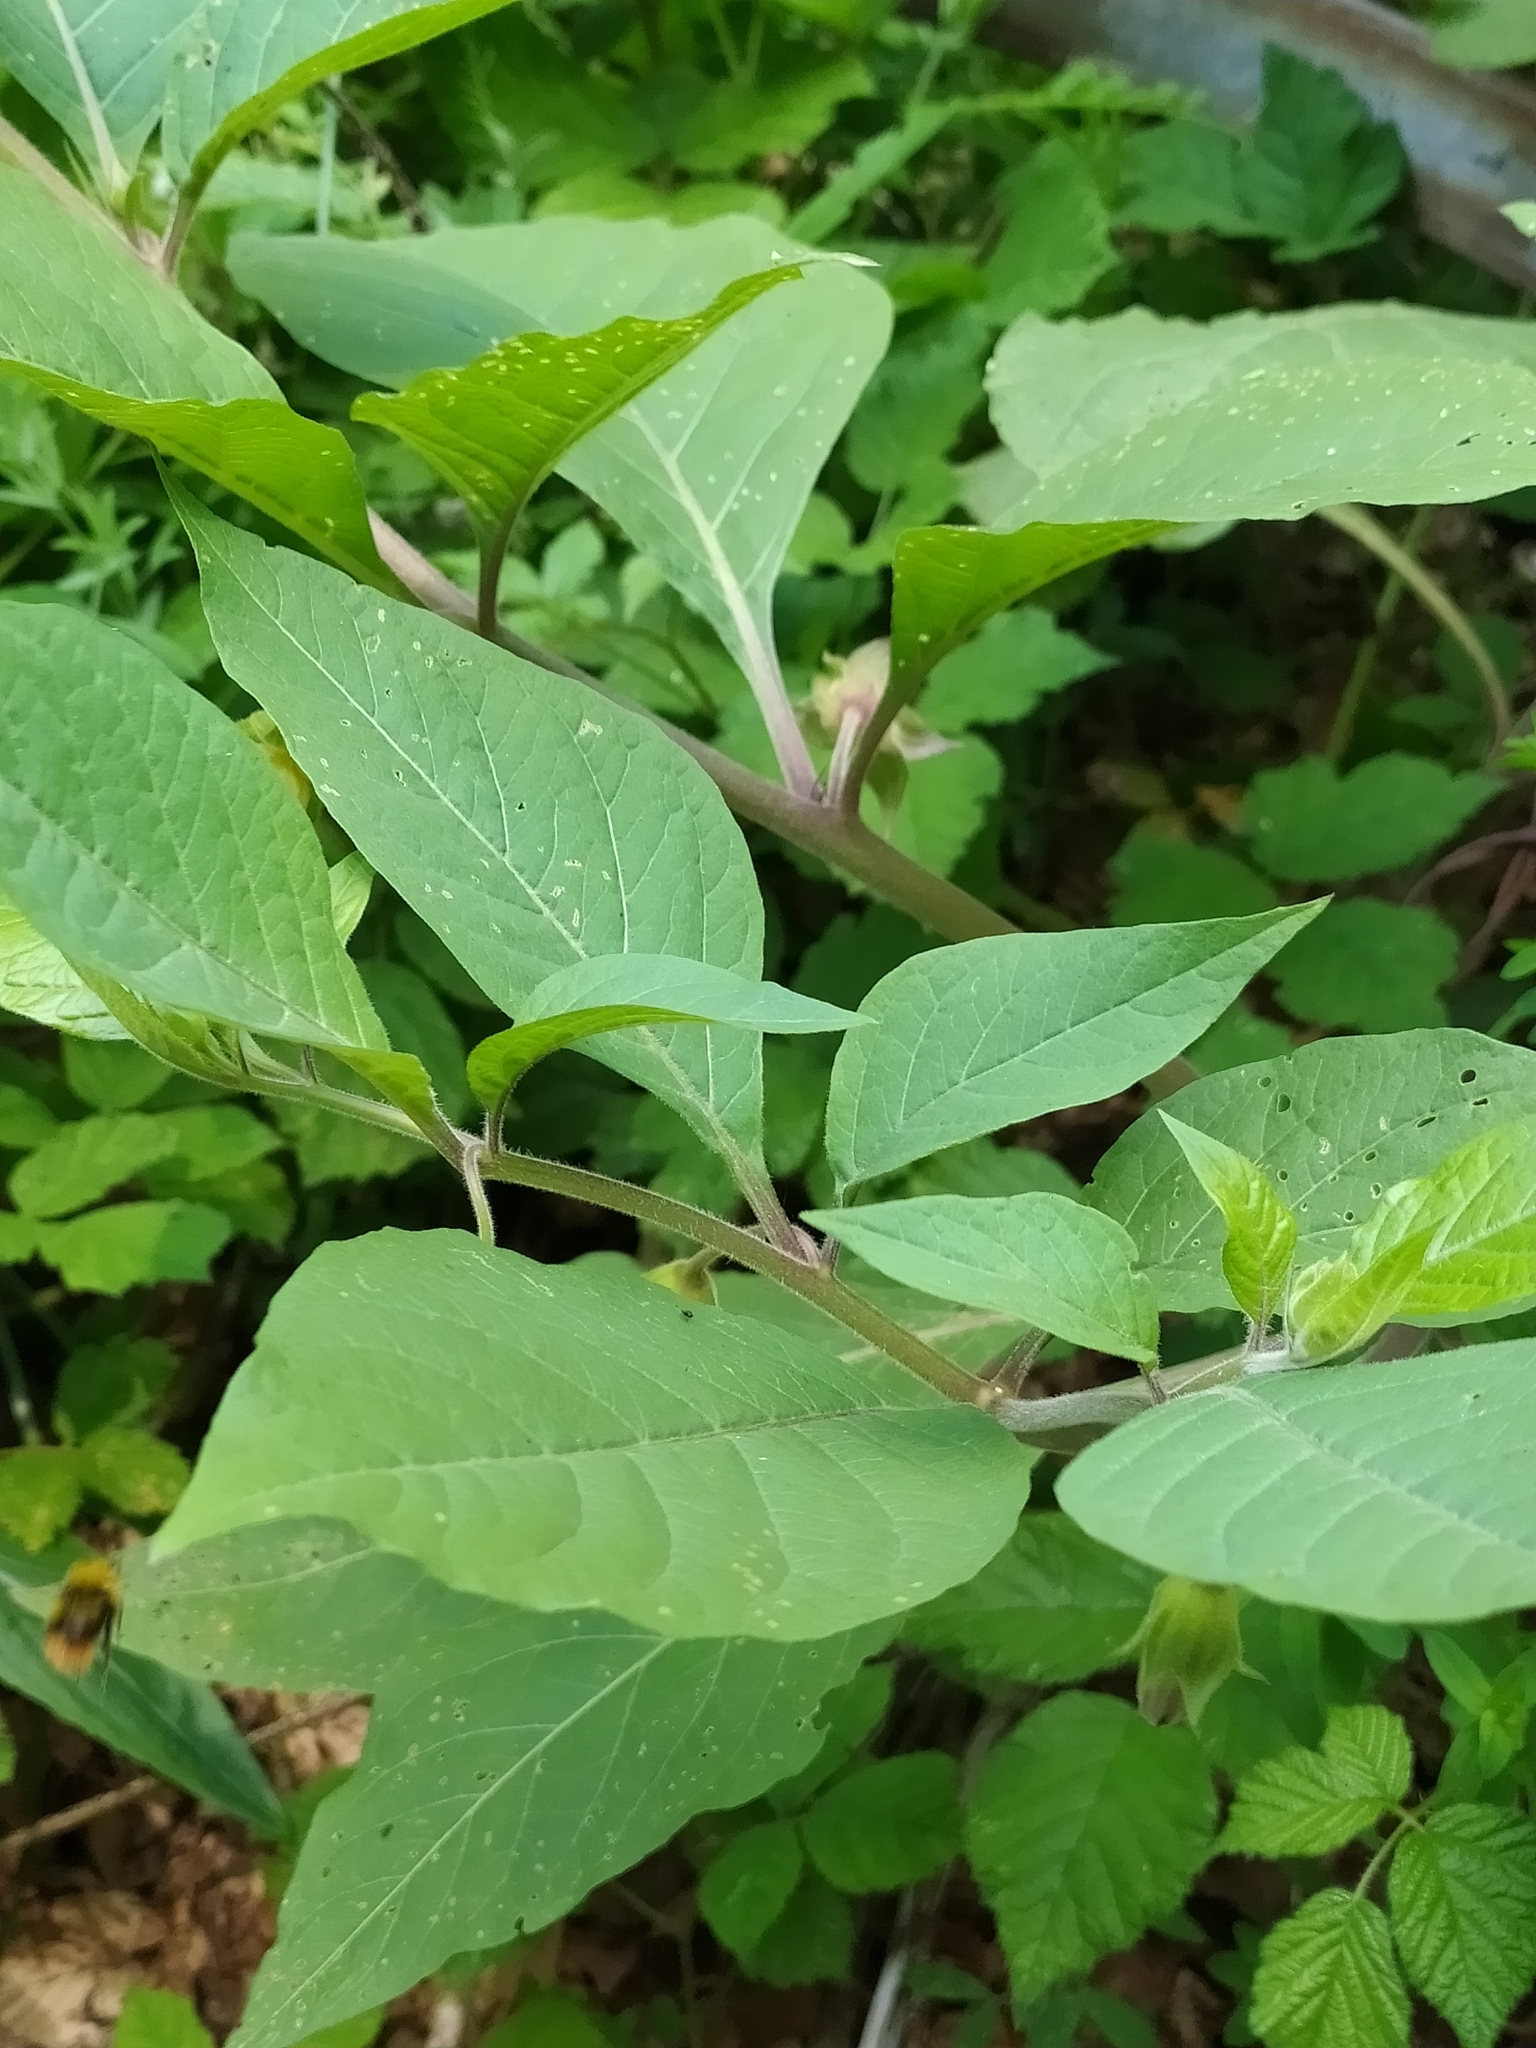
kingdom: Plantae
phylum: Tracheophyta
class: Magnoliopsida
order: Solanales
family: Solanaceae
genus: Atropa
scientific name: Atropa belladonna
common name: Deadly nightshade
